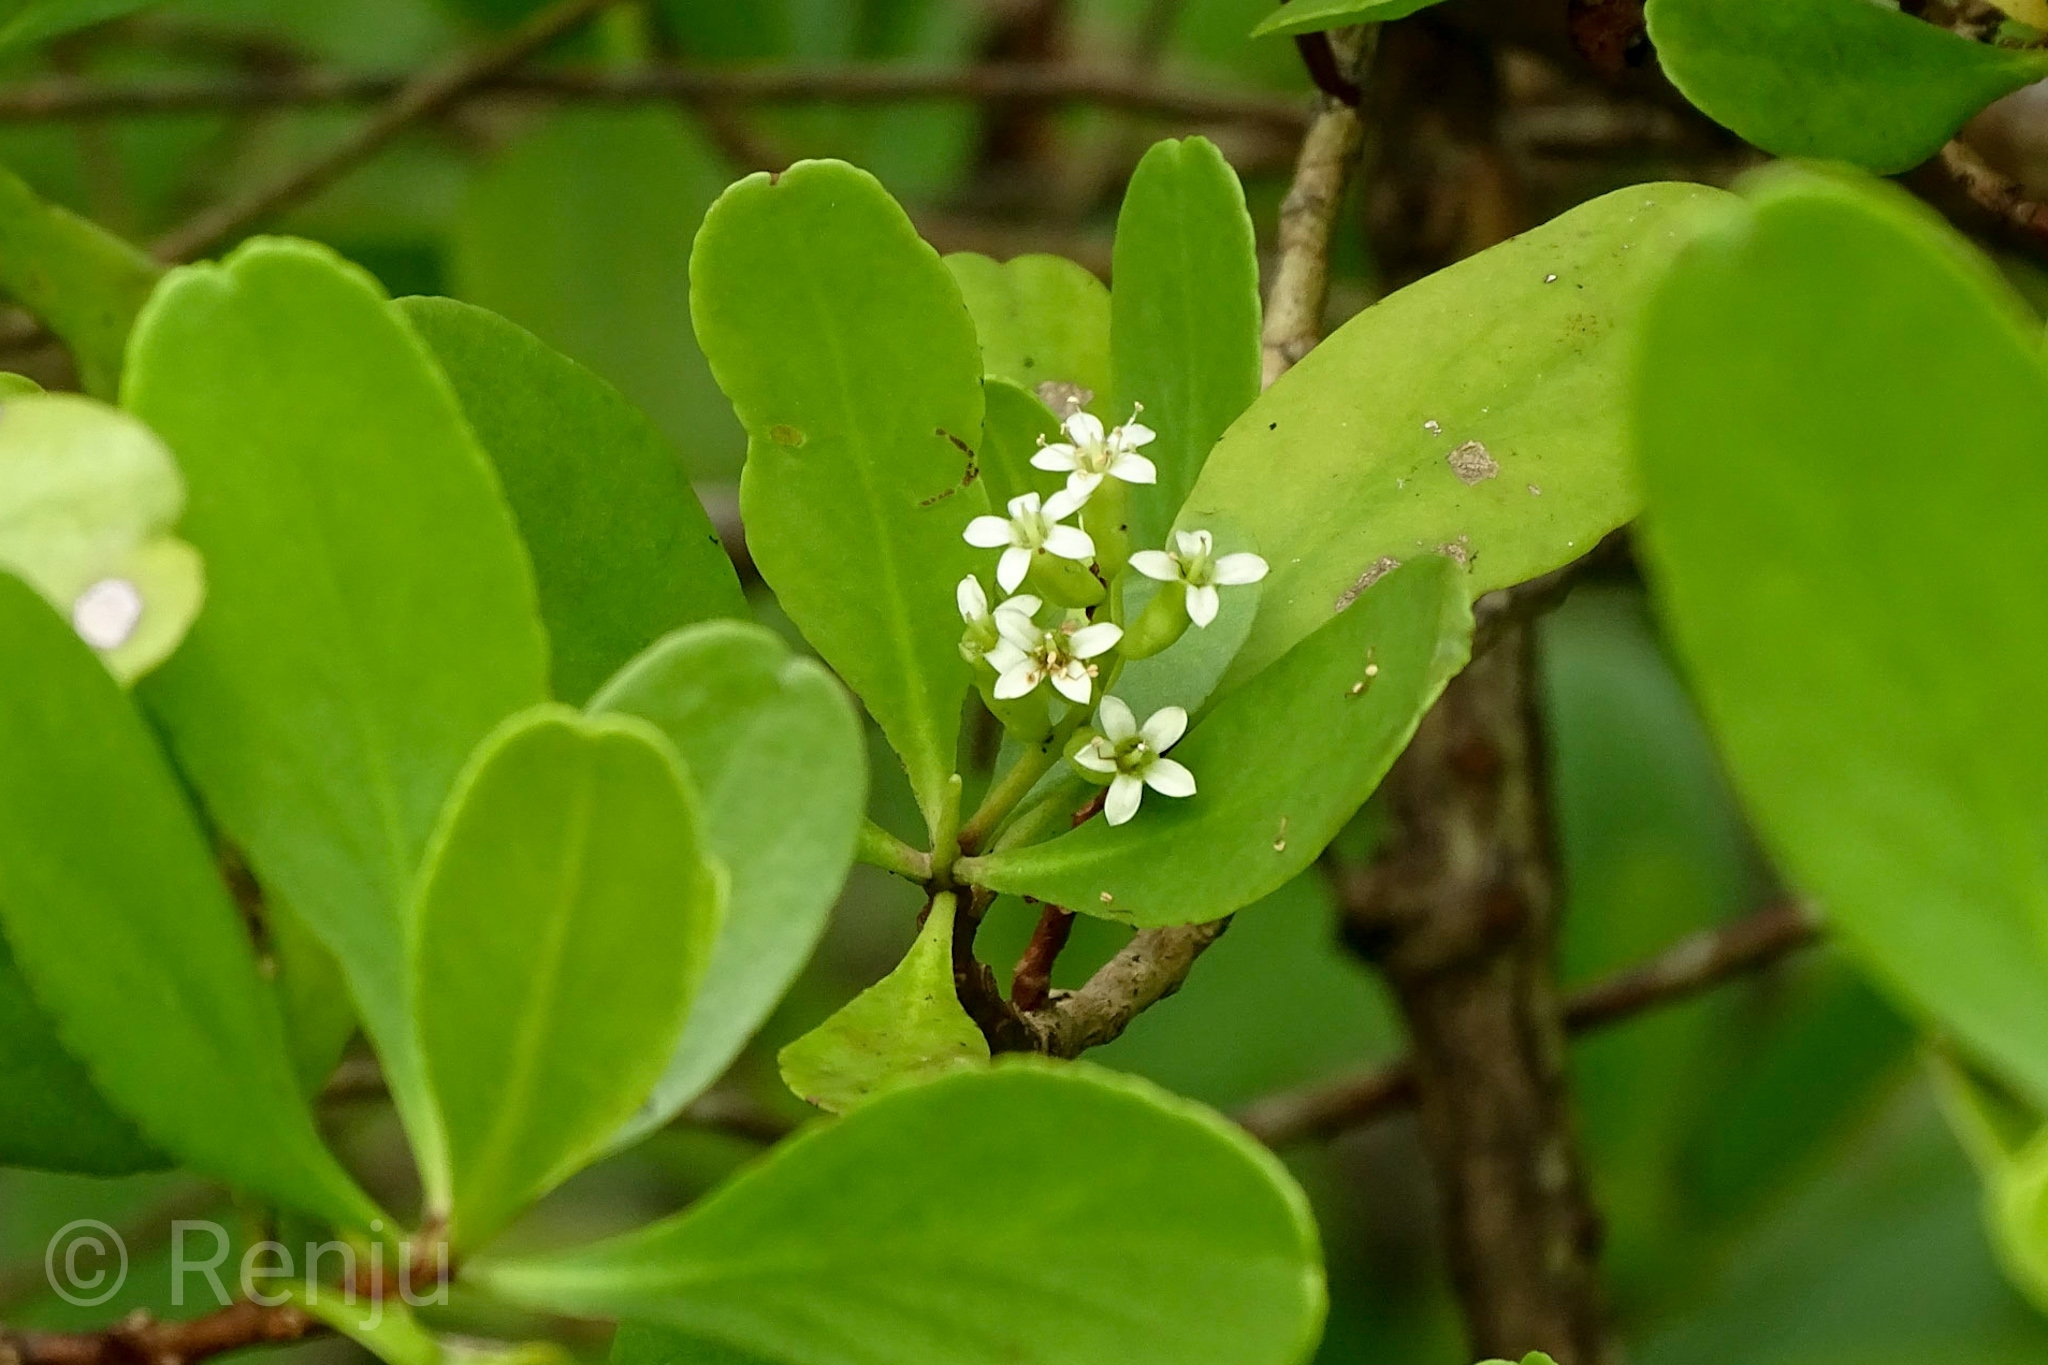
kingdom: Plantae
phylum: Tracheophyta
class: Magnoliopsida
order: Myrtales
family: Combretaceae
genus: Lumnitzera
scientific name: Lumnitzera racemosa
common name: White-flowered black mangrove
